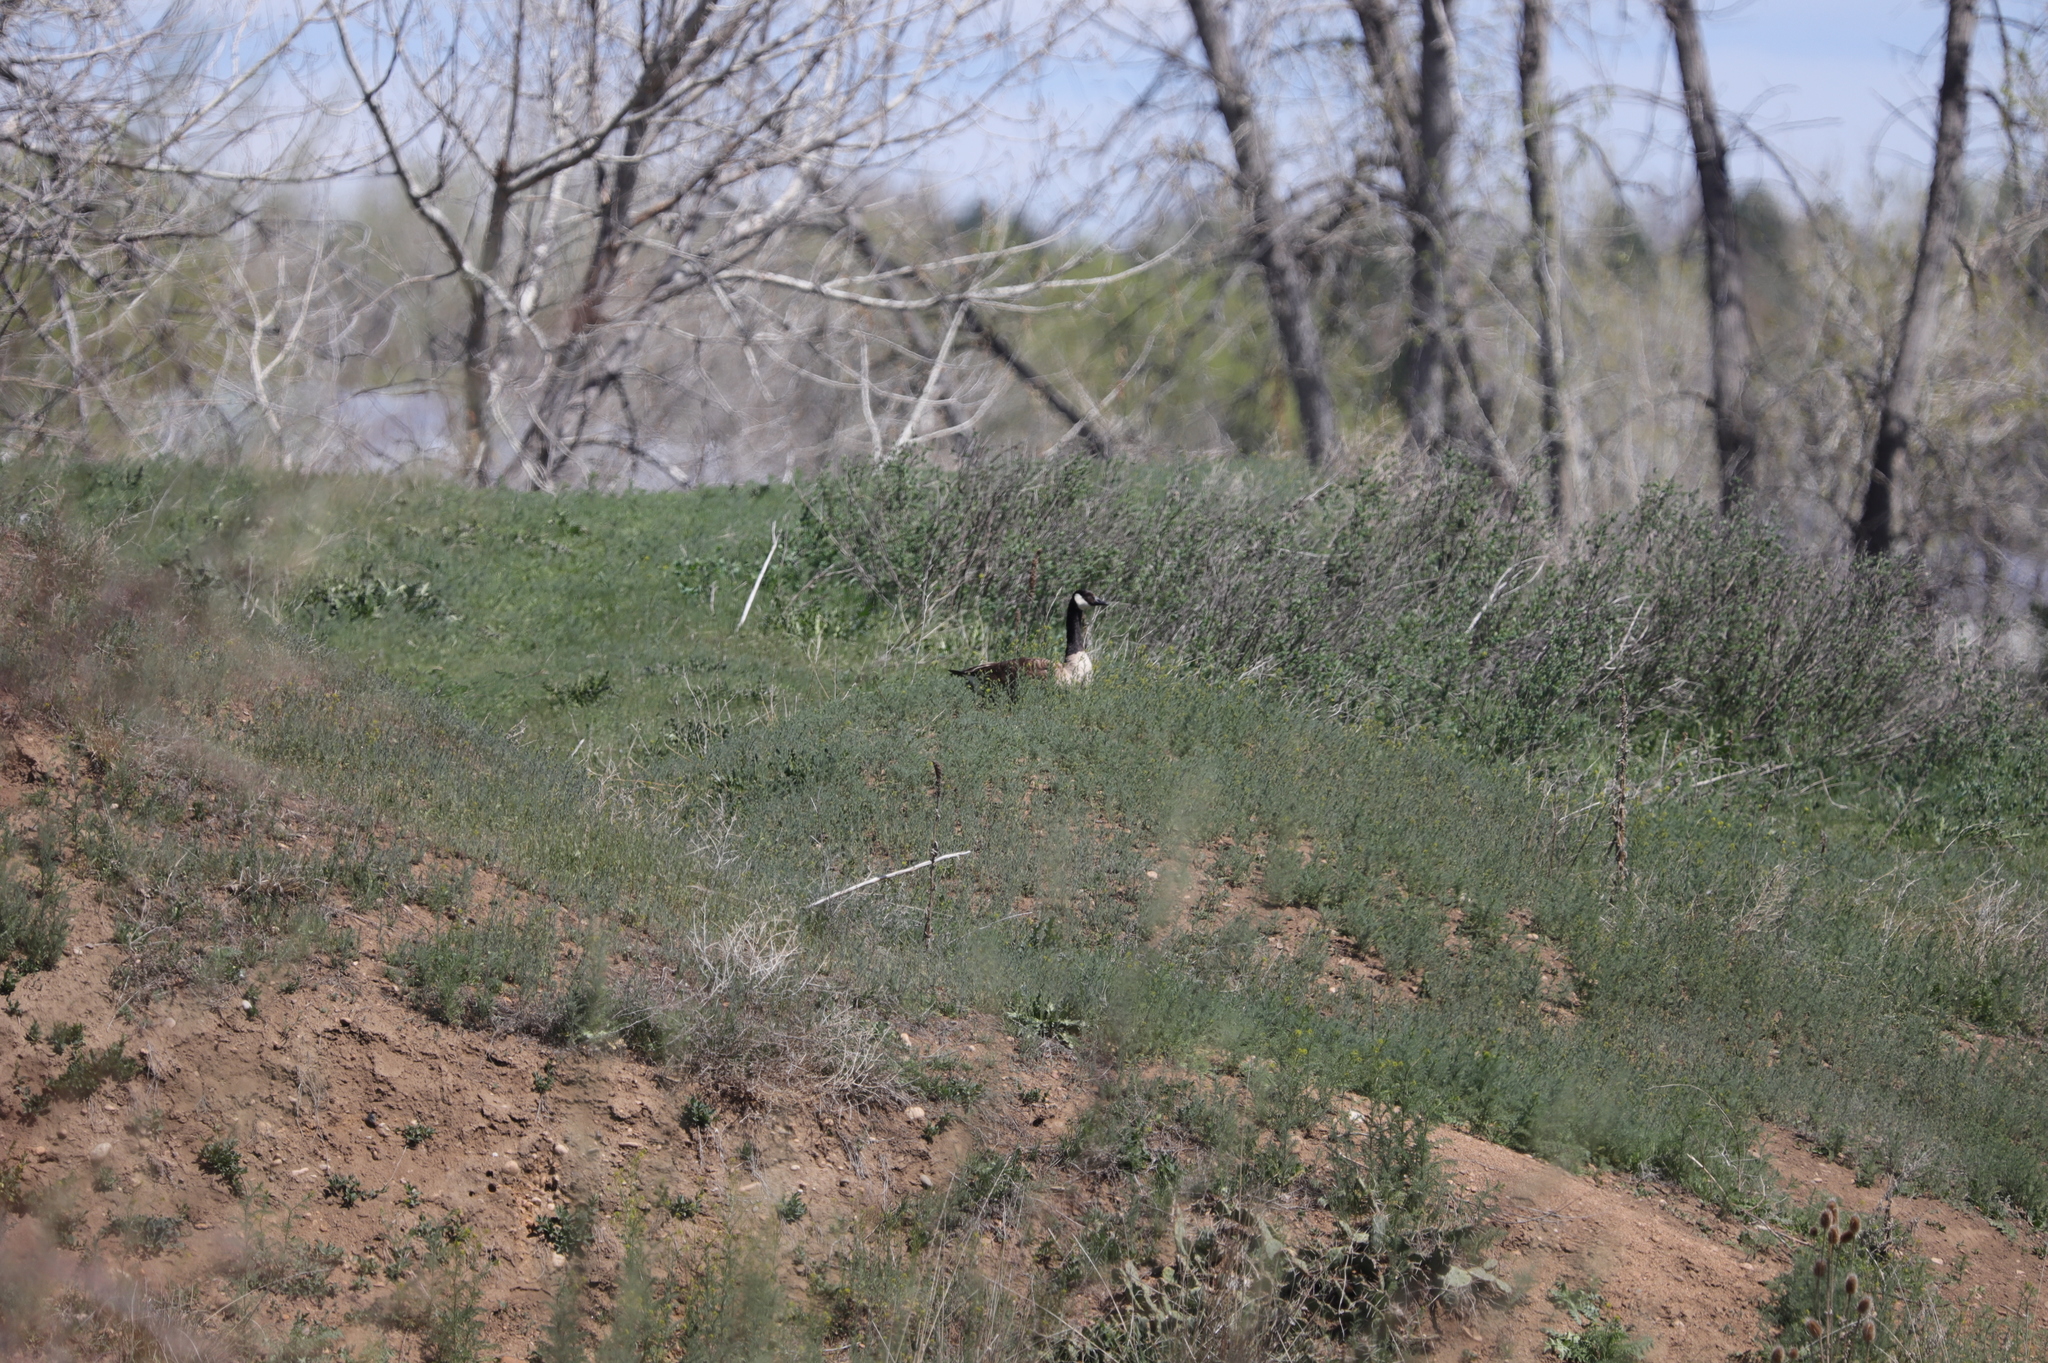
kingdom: Animalia
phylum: Chordata
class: Aves
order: Anseriformes
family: Anatidae
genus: Branta
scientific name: Branta canadensis
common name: Canada goose
